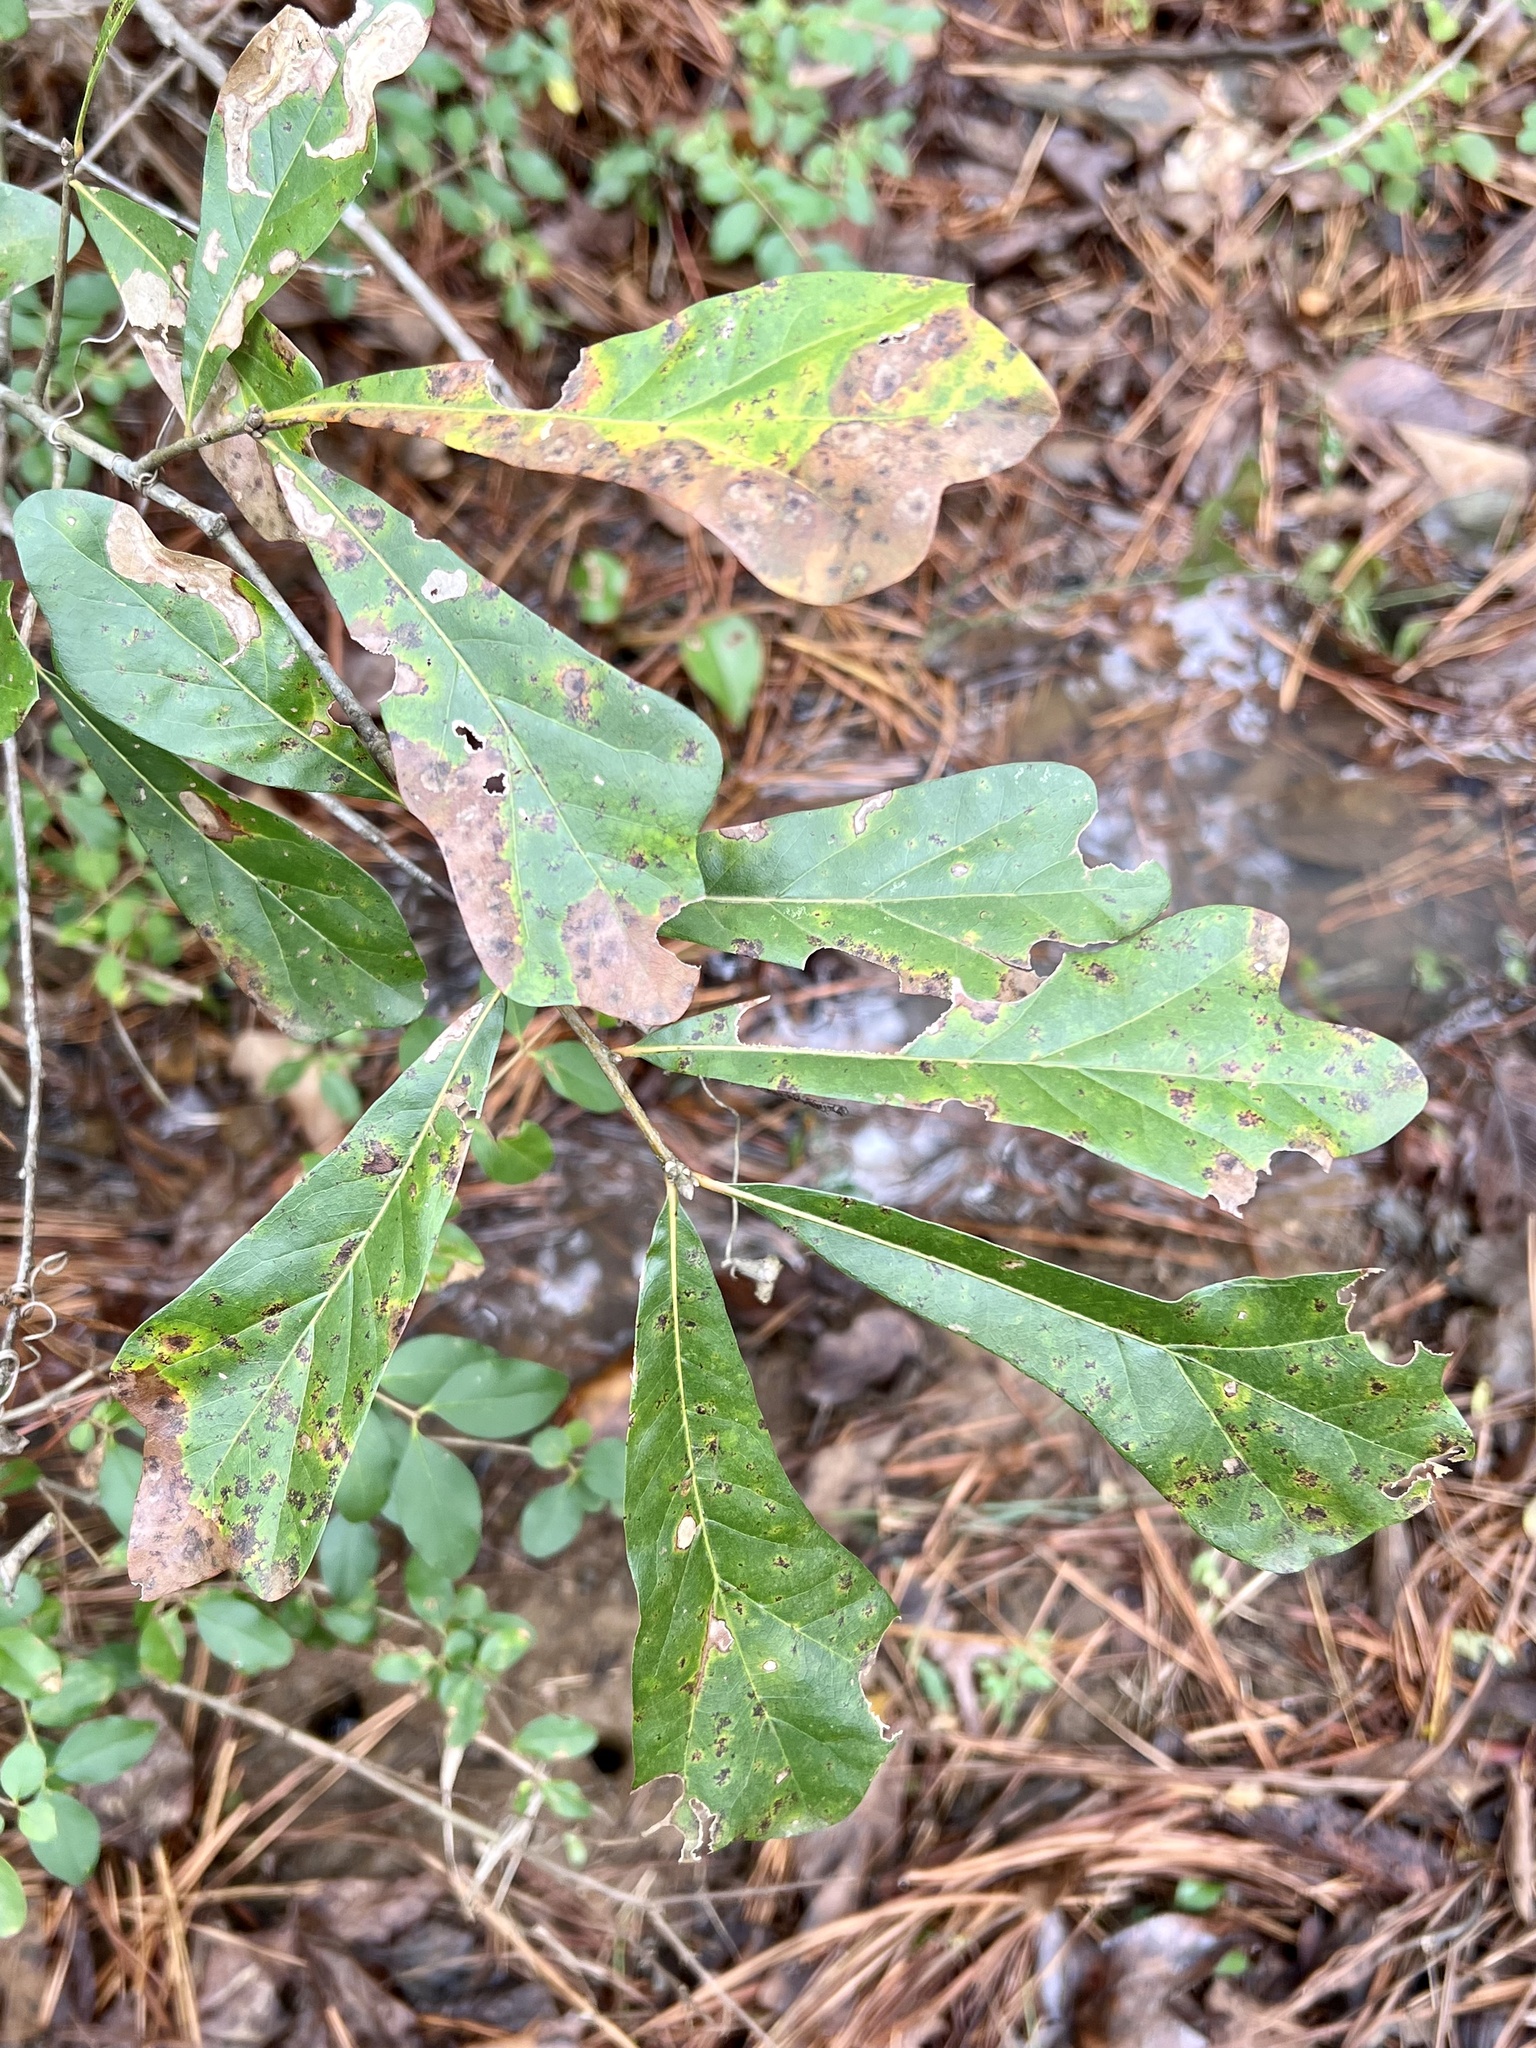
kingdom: Plantae
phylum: Tracheophyta
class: Magnoliopsida
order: Fagales
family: Fagaceae
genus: Quercus
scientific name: Quercus nigra
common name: Water oak
